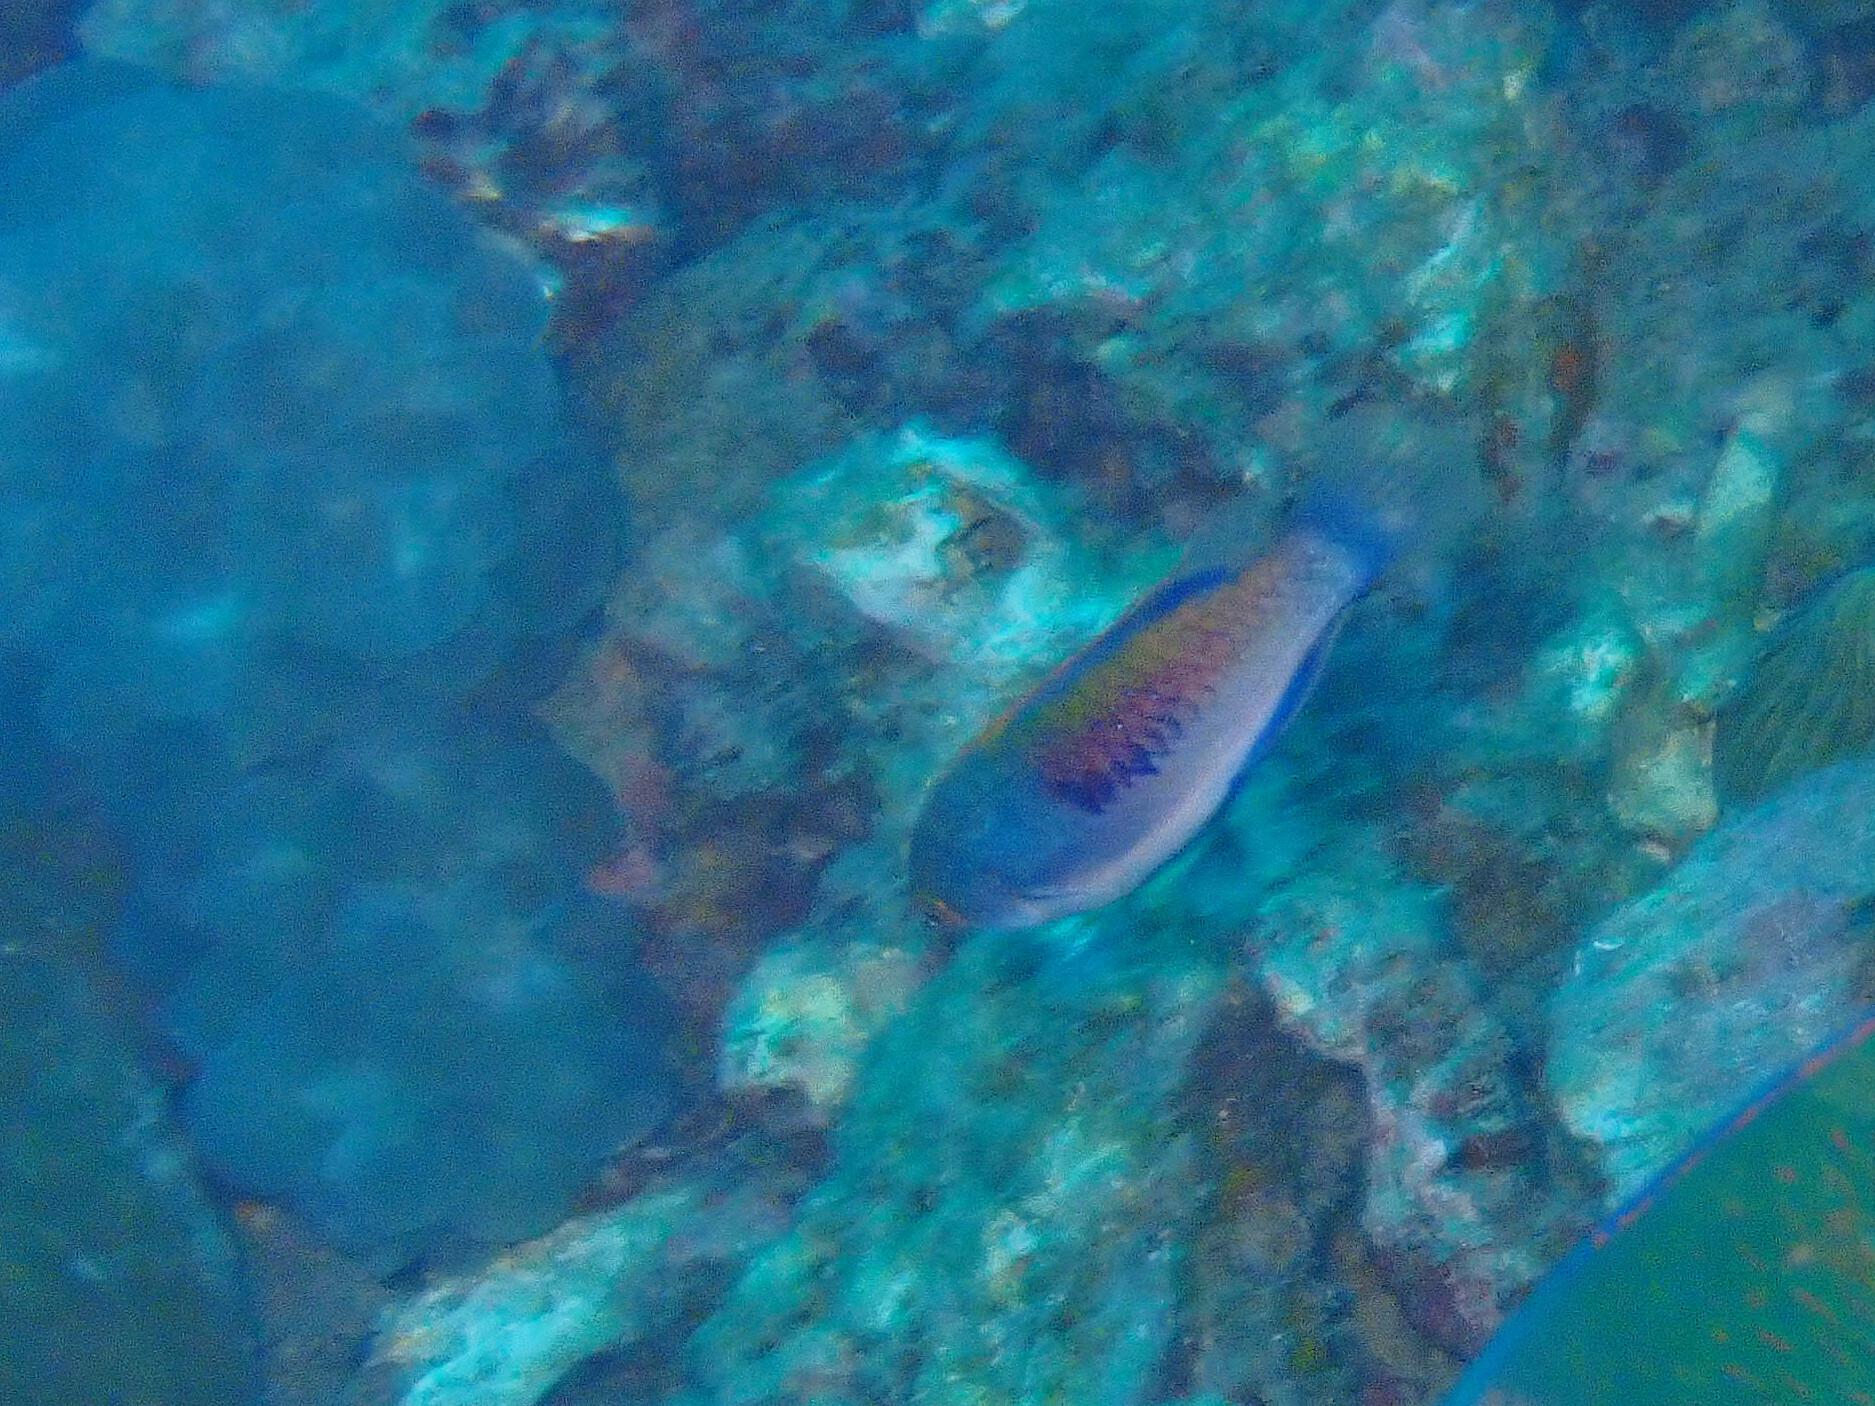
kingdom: Animalia
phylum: Chordata
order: Perciformes
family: Labridae
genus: Cirrhilabrus
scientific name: Cirrhilabrus cyanopleura
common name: Coralline wrasse
